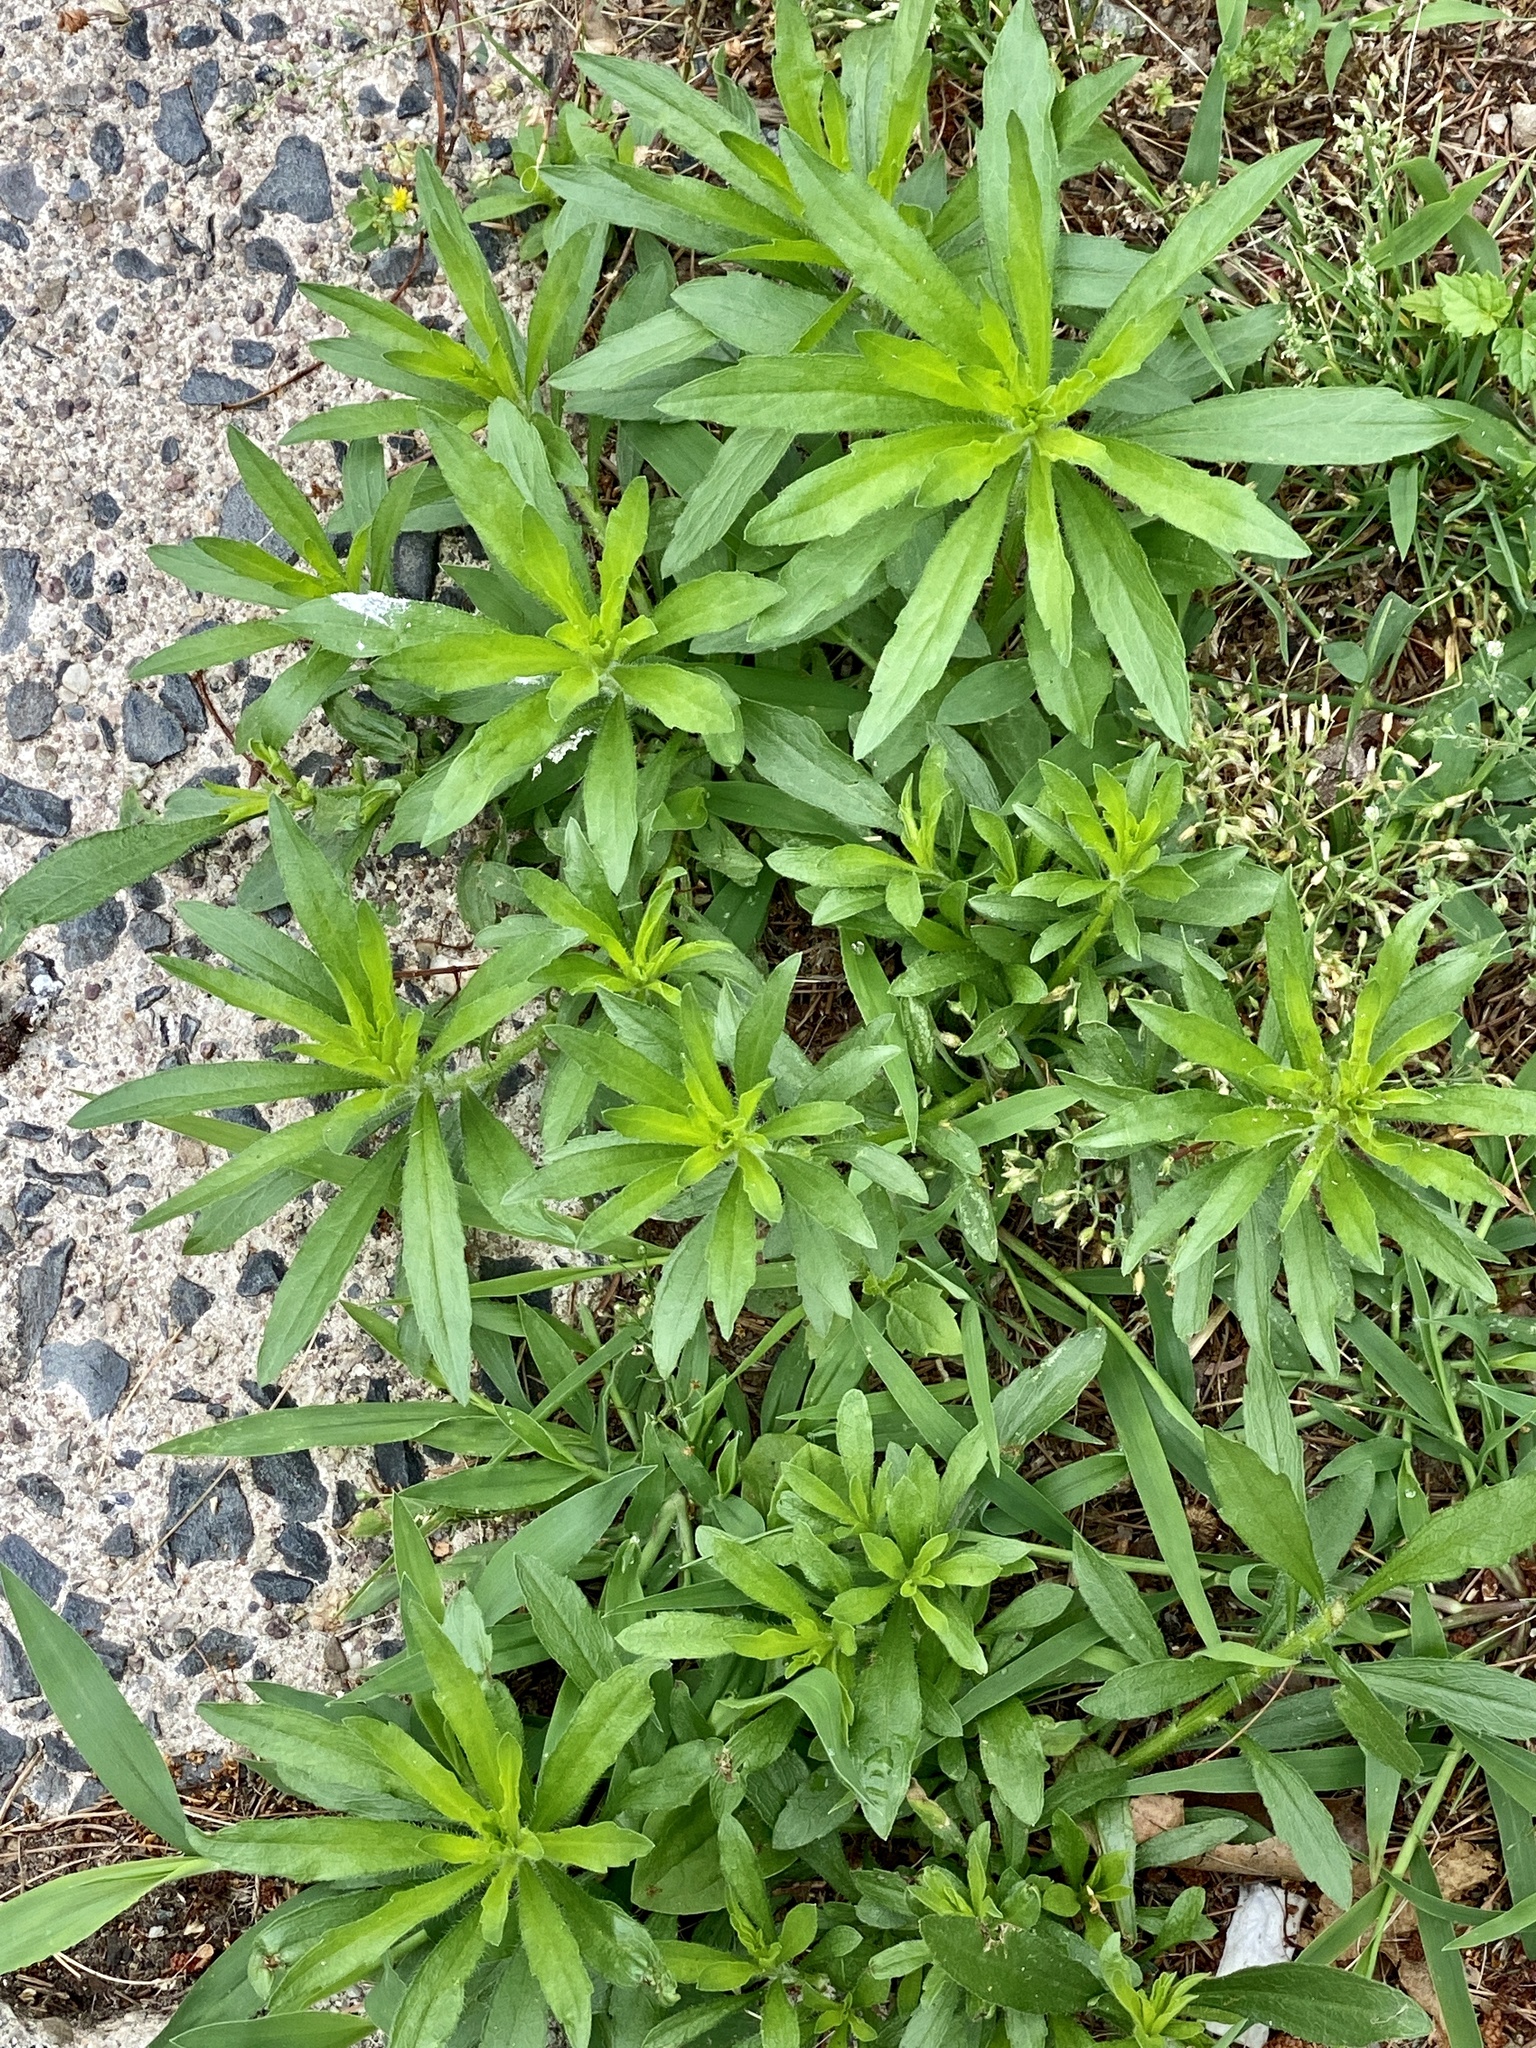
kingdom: Plantae
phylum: Tracheophyta
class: Magnoliopsida
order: Asterales
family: Asteraceae
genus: Erigeron
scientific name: Erigeron canadensis
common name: Canadian fleabane
